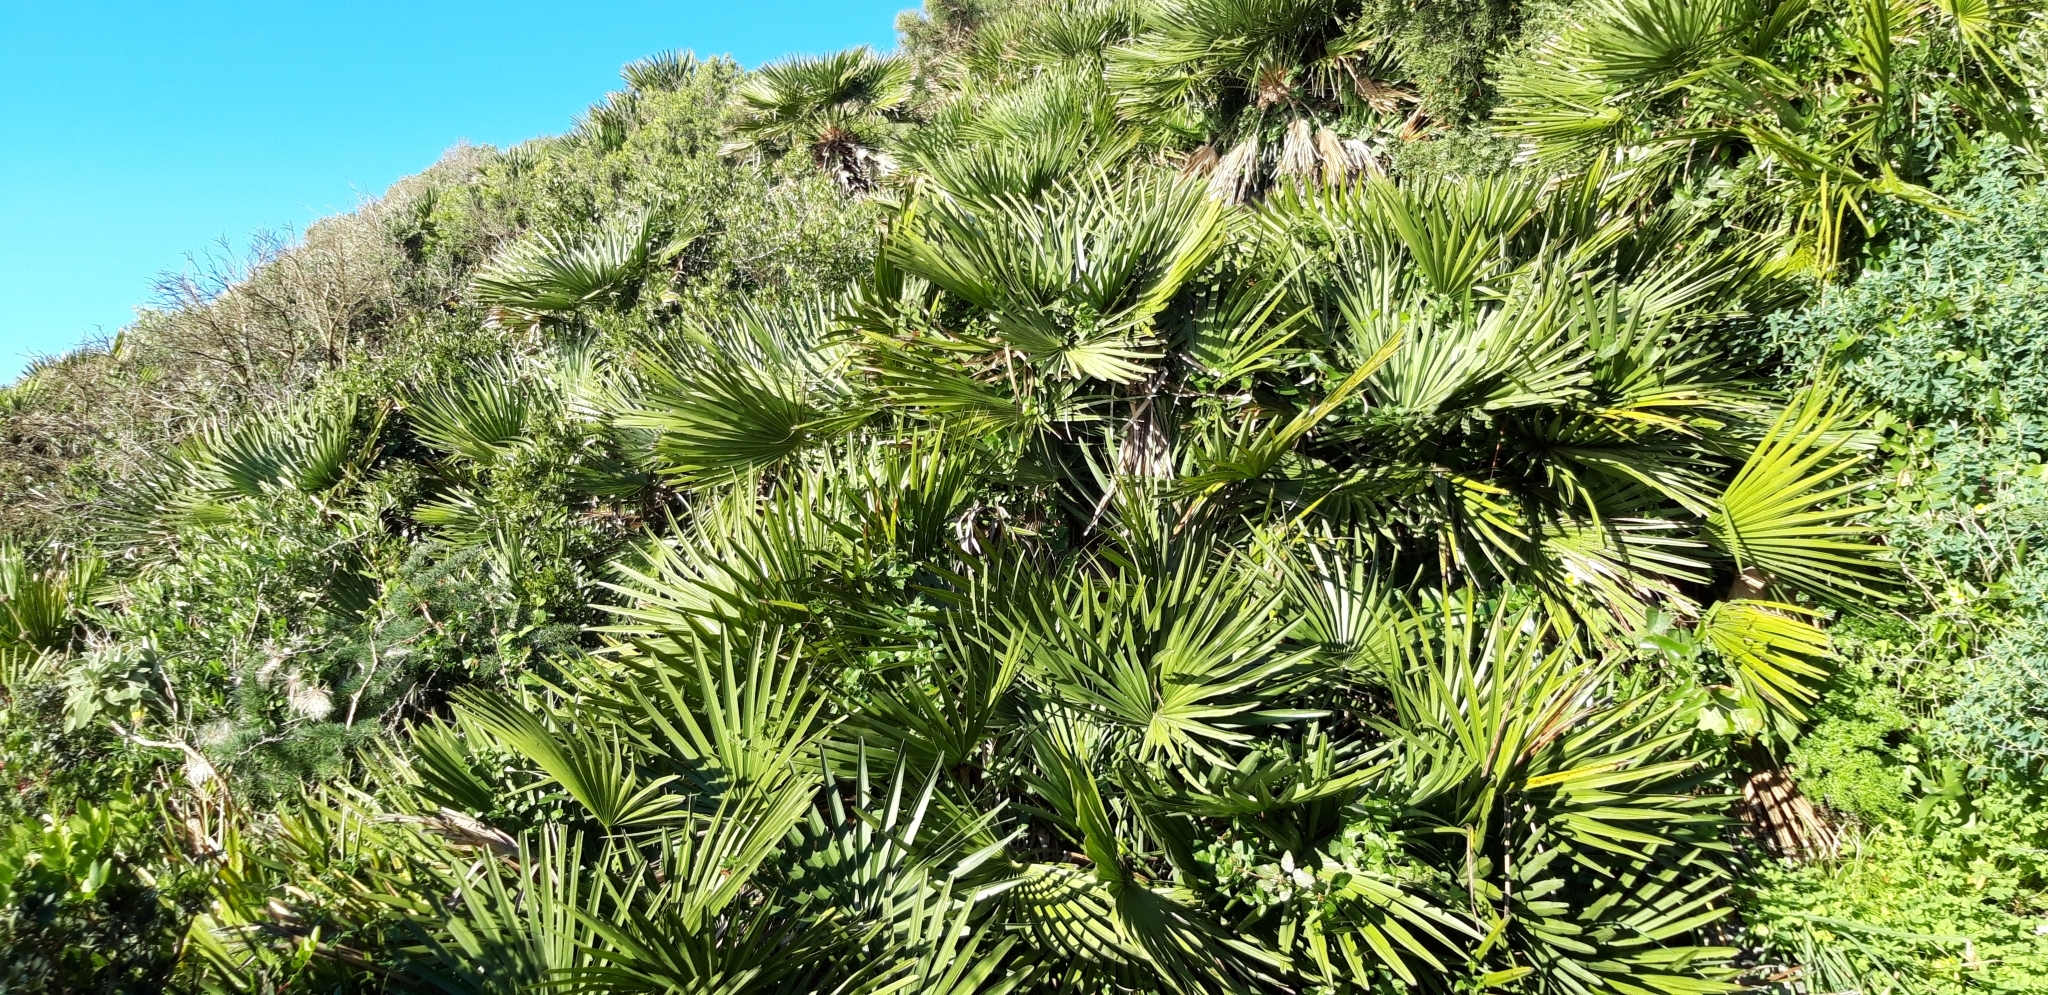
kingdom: Plantae
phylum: Tracheophyta
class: Liliopsida
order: Arecales
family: Arecaceae
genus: Chamaerops
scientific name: Chamaerops humilis
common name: Dwarf fan palm
